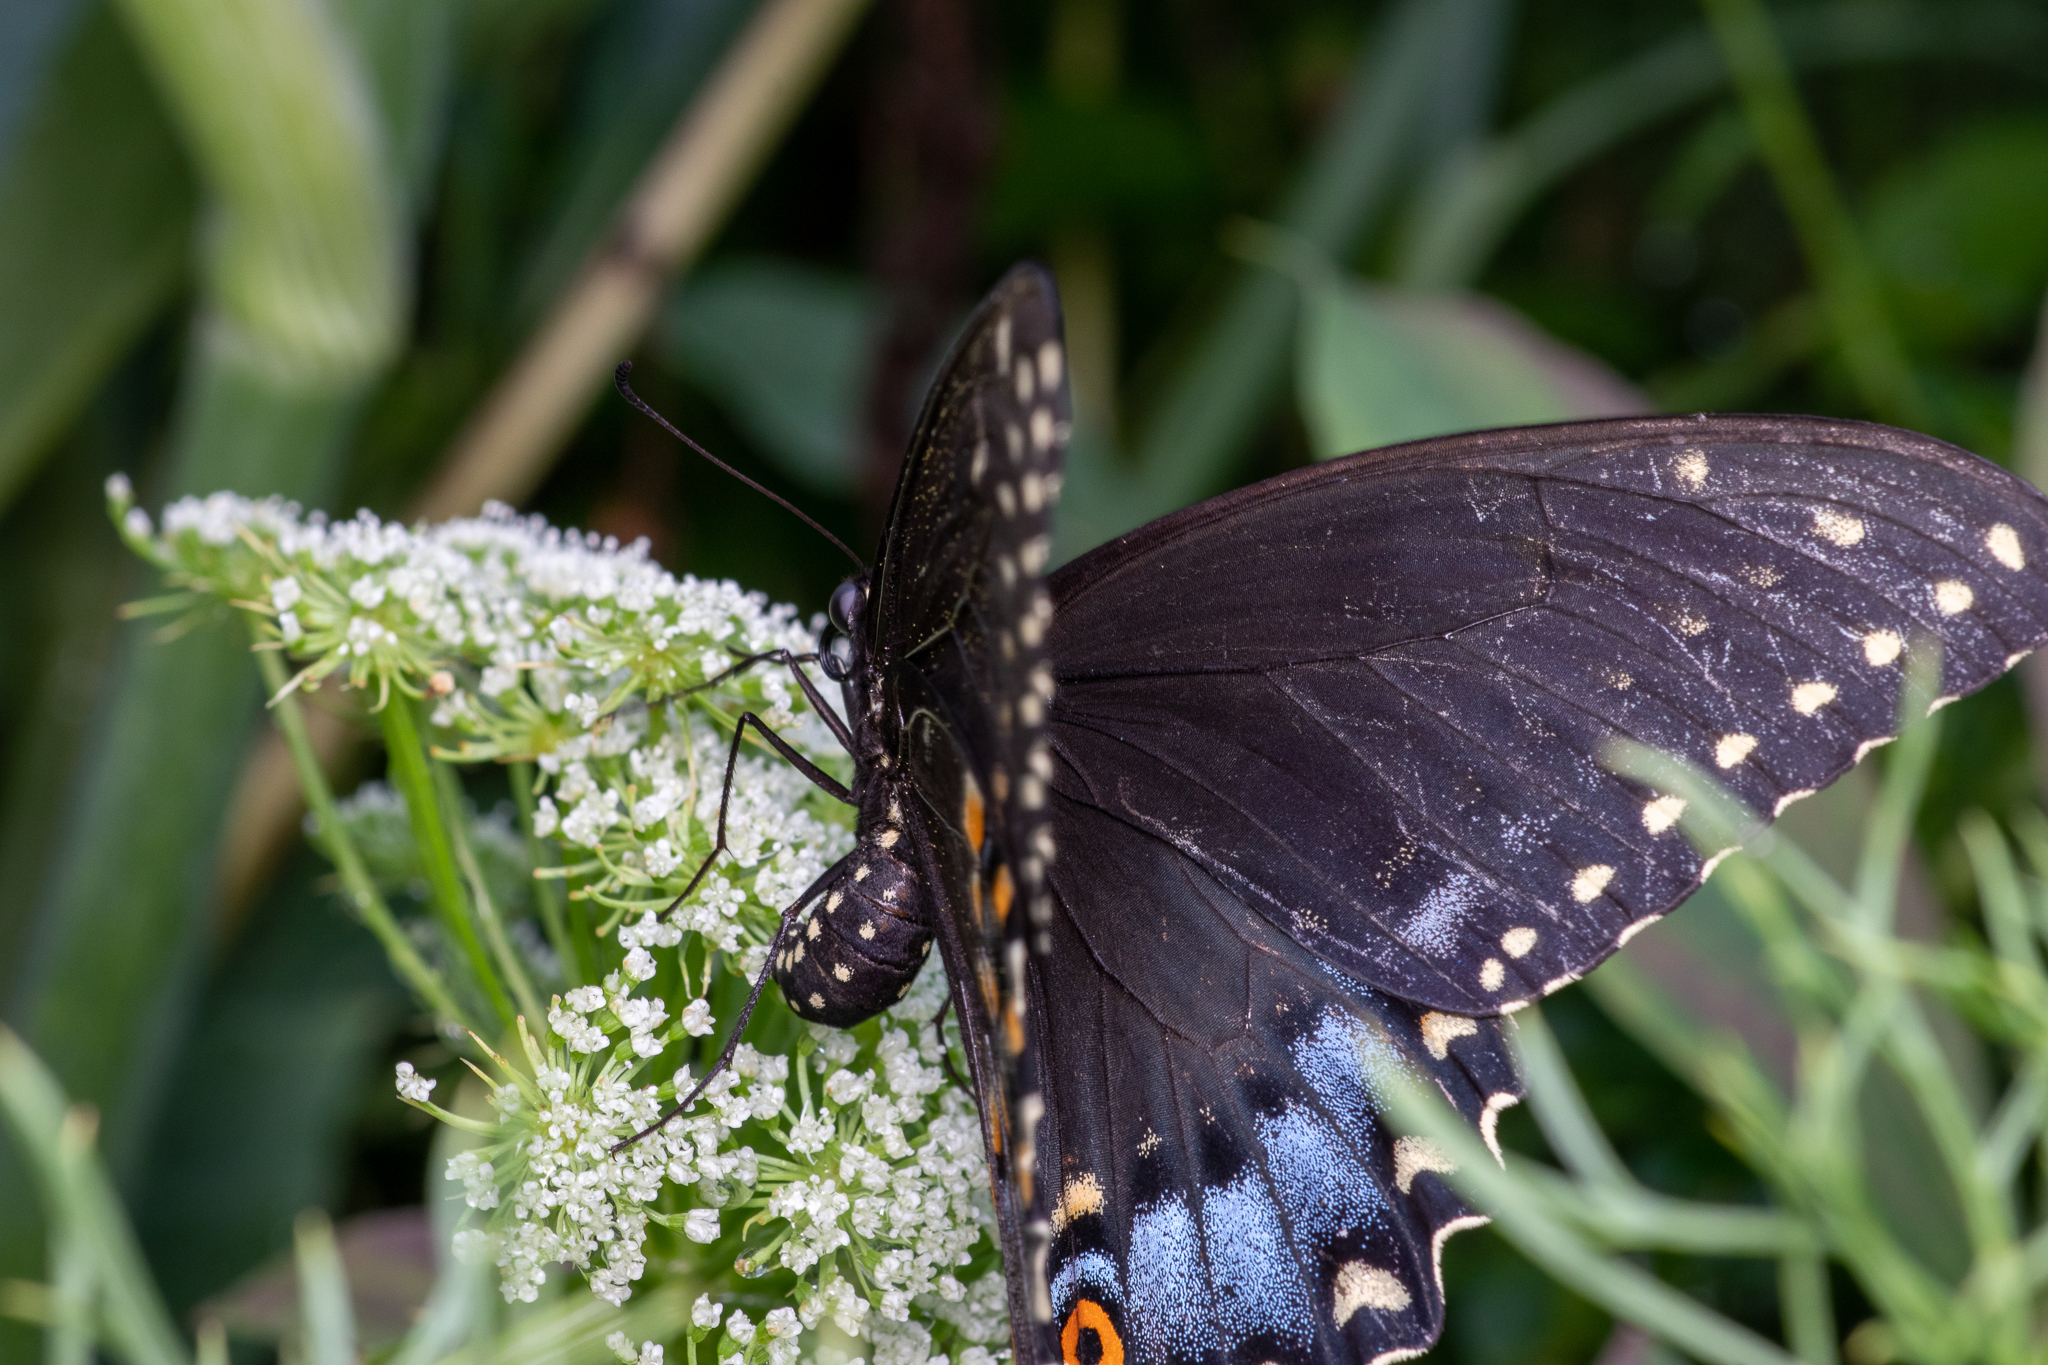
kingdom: Animalia
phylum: Arthropoda
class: Insecta
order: Lepidoptera
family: Papilionidae
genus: Papilio
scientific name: Papilio polyxenes
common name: Black swallowtail
